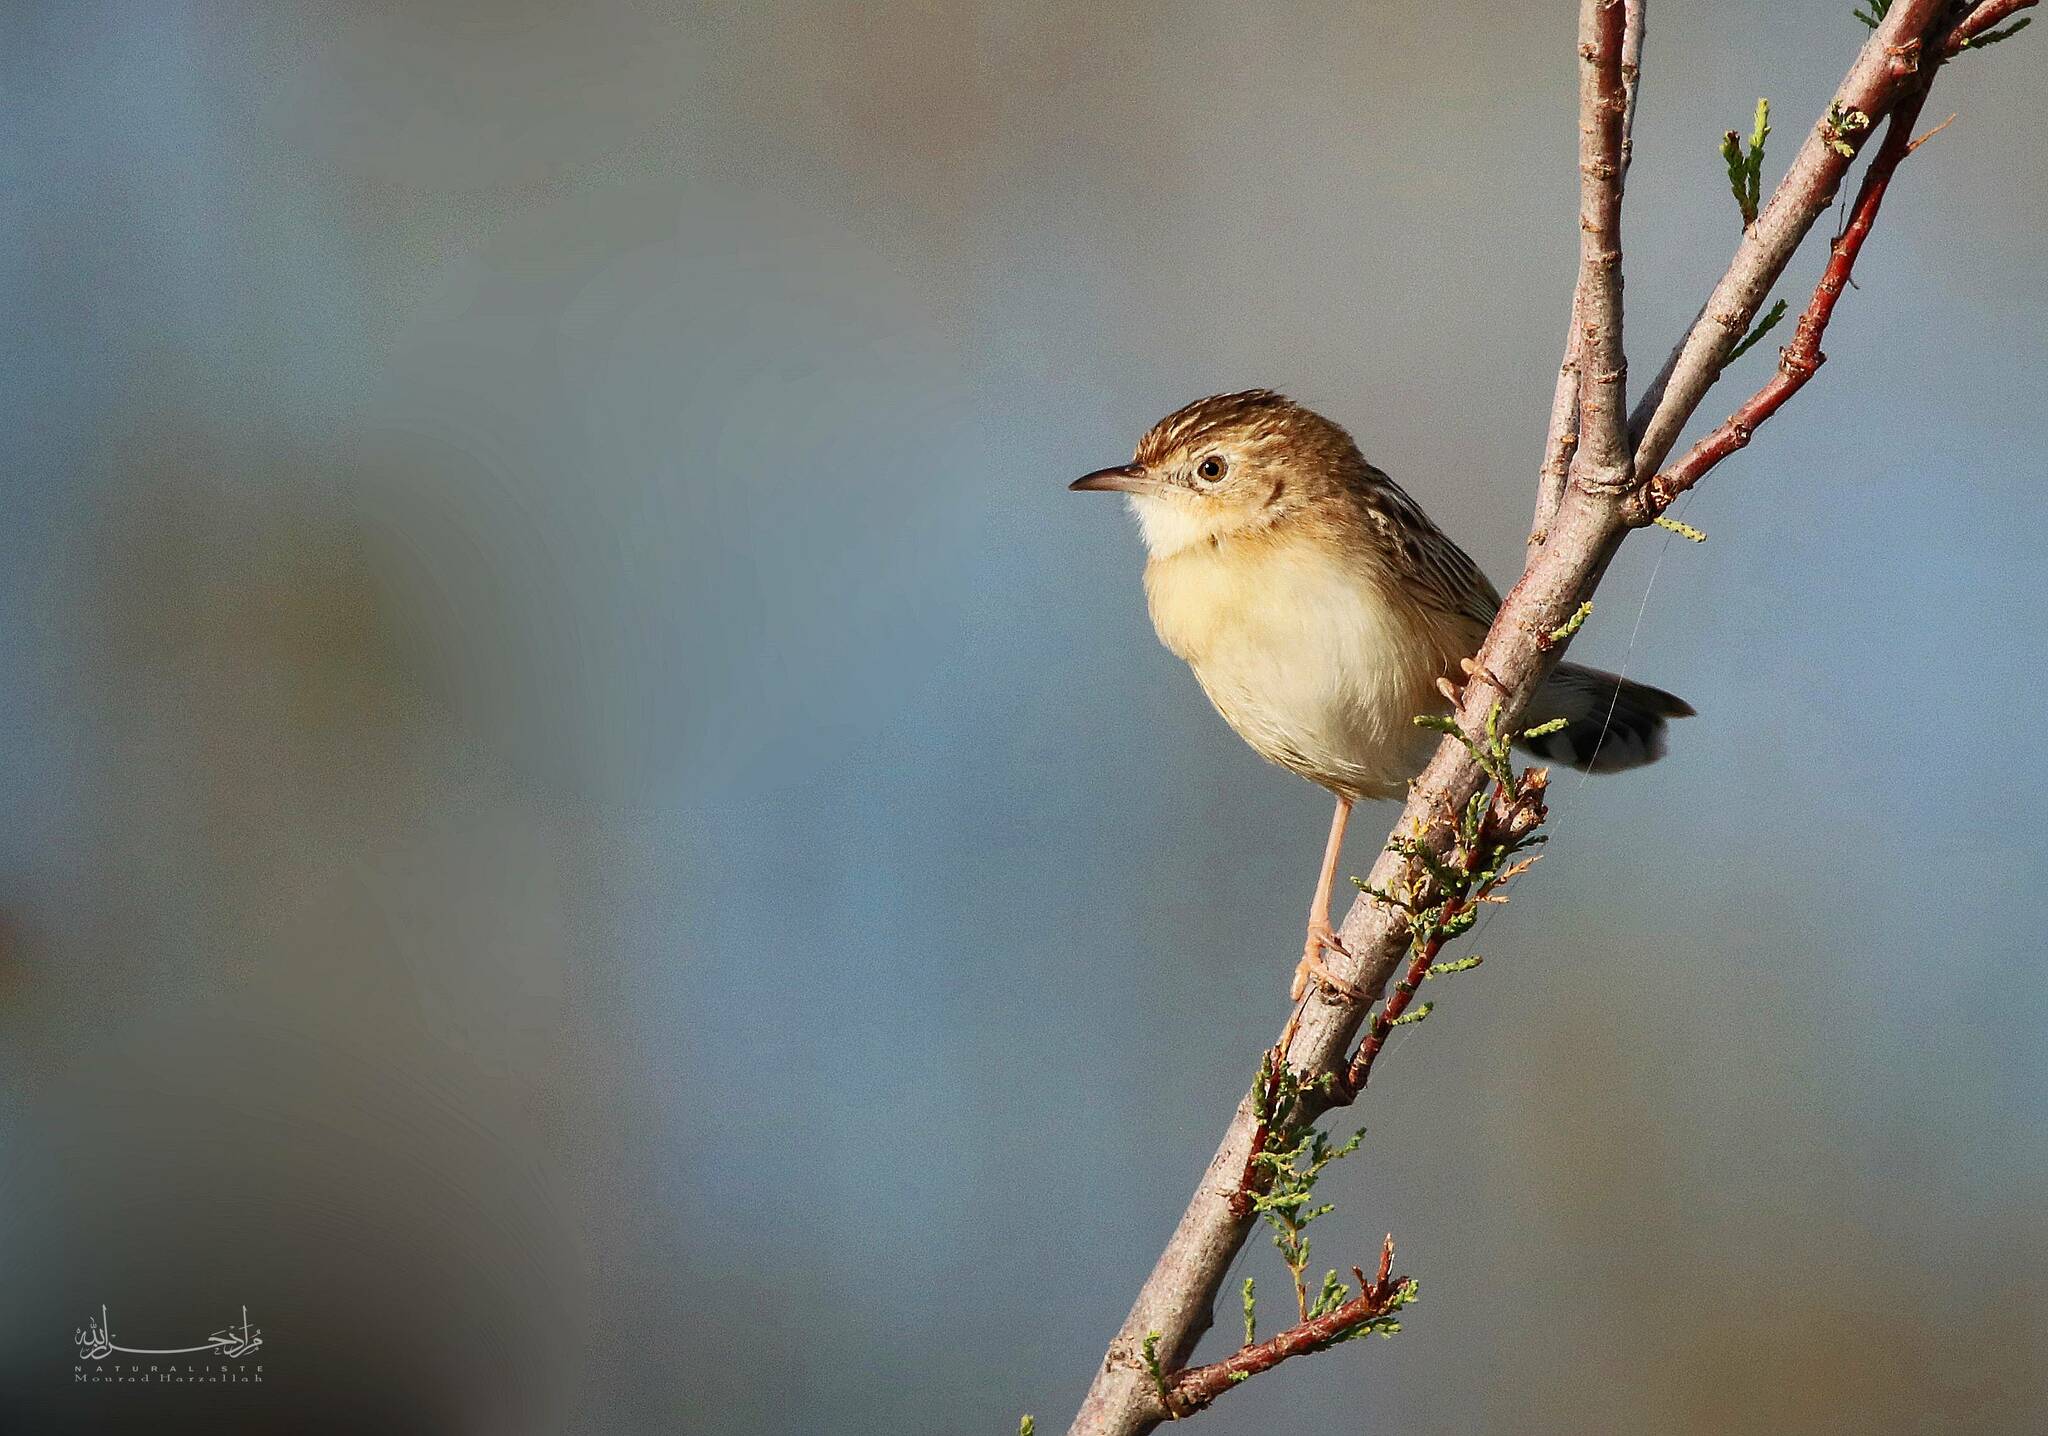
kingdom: Animalia
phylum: Chordata
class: Aves
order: Passeriformes
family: Cisticolidae
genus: Cisticola
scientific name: Cisticola juncidis
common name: Zitting cisticola
